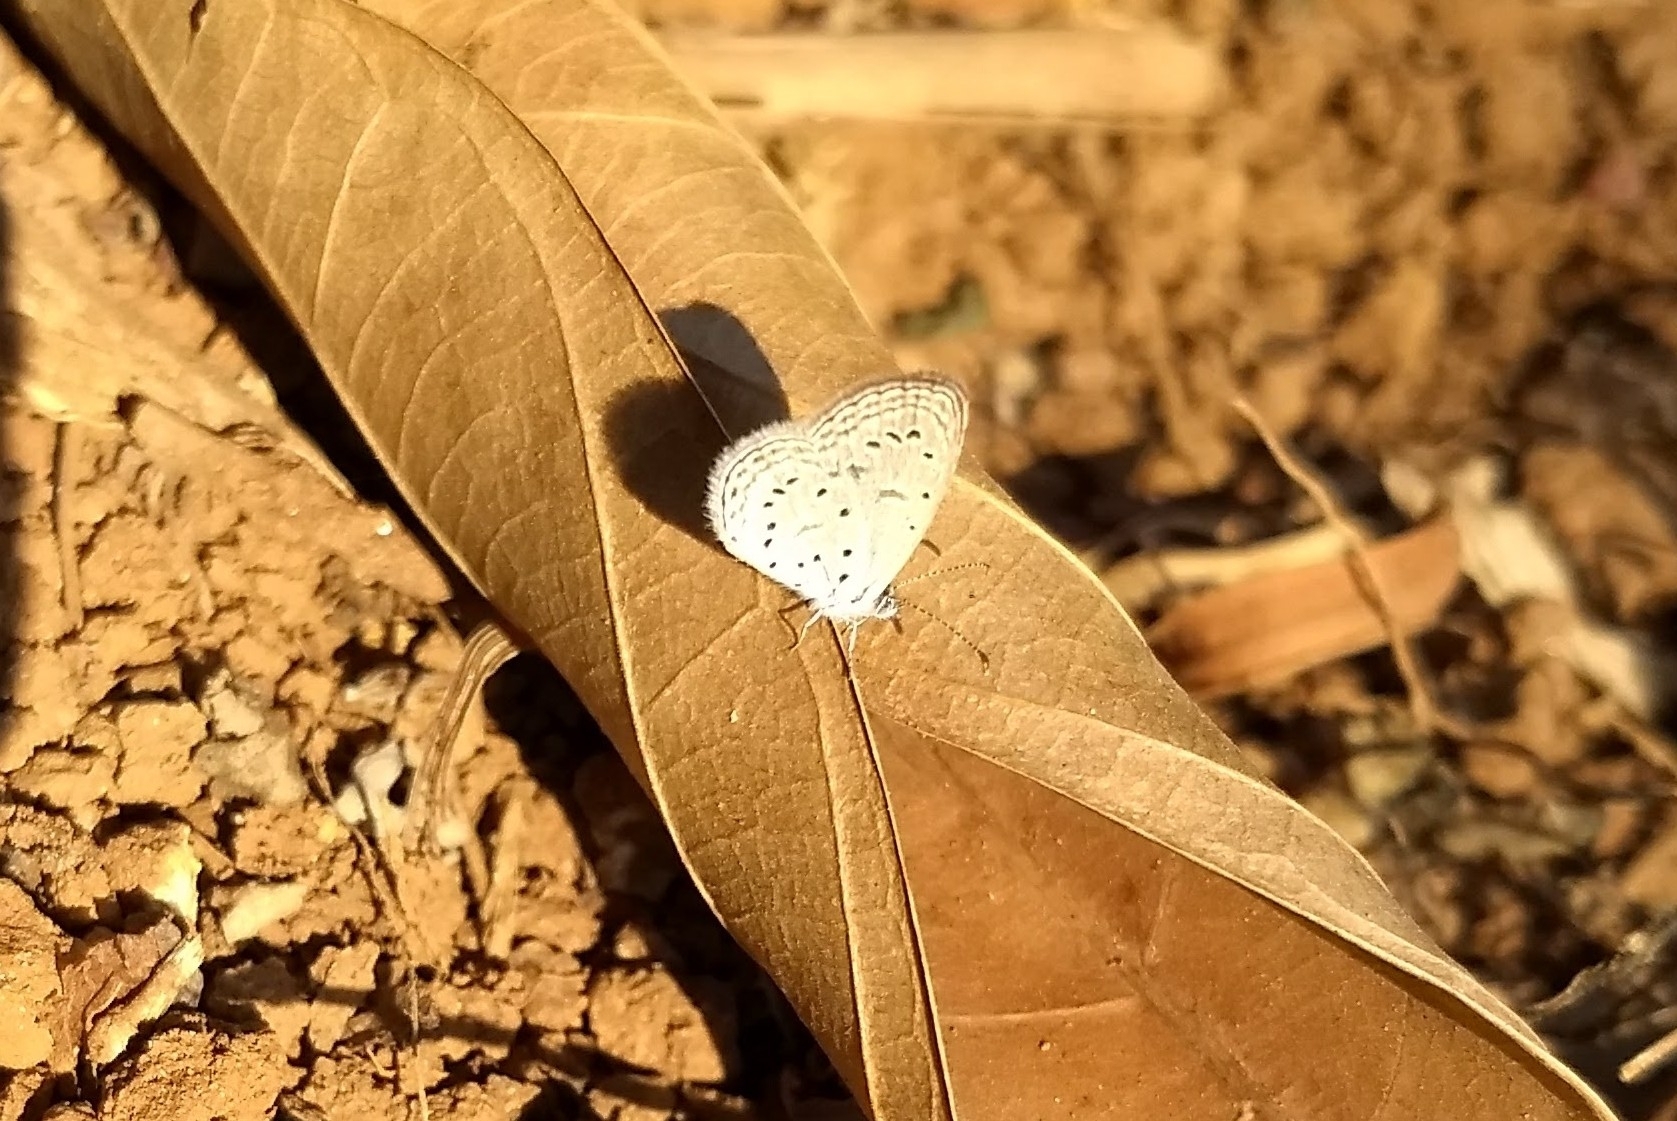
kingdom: Animalia
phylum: Arthropoda
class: Insecta
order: Lepidoptera
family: Lycaenidae
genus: Zizula
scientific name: Zizula hylax
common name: Gaika blue
